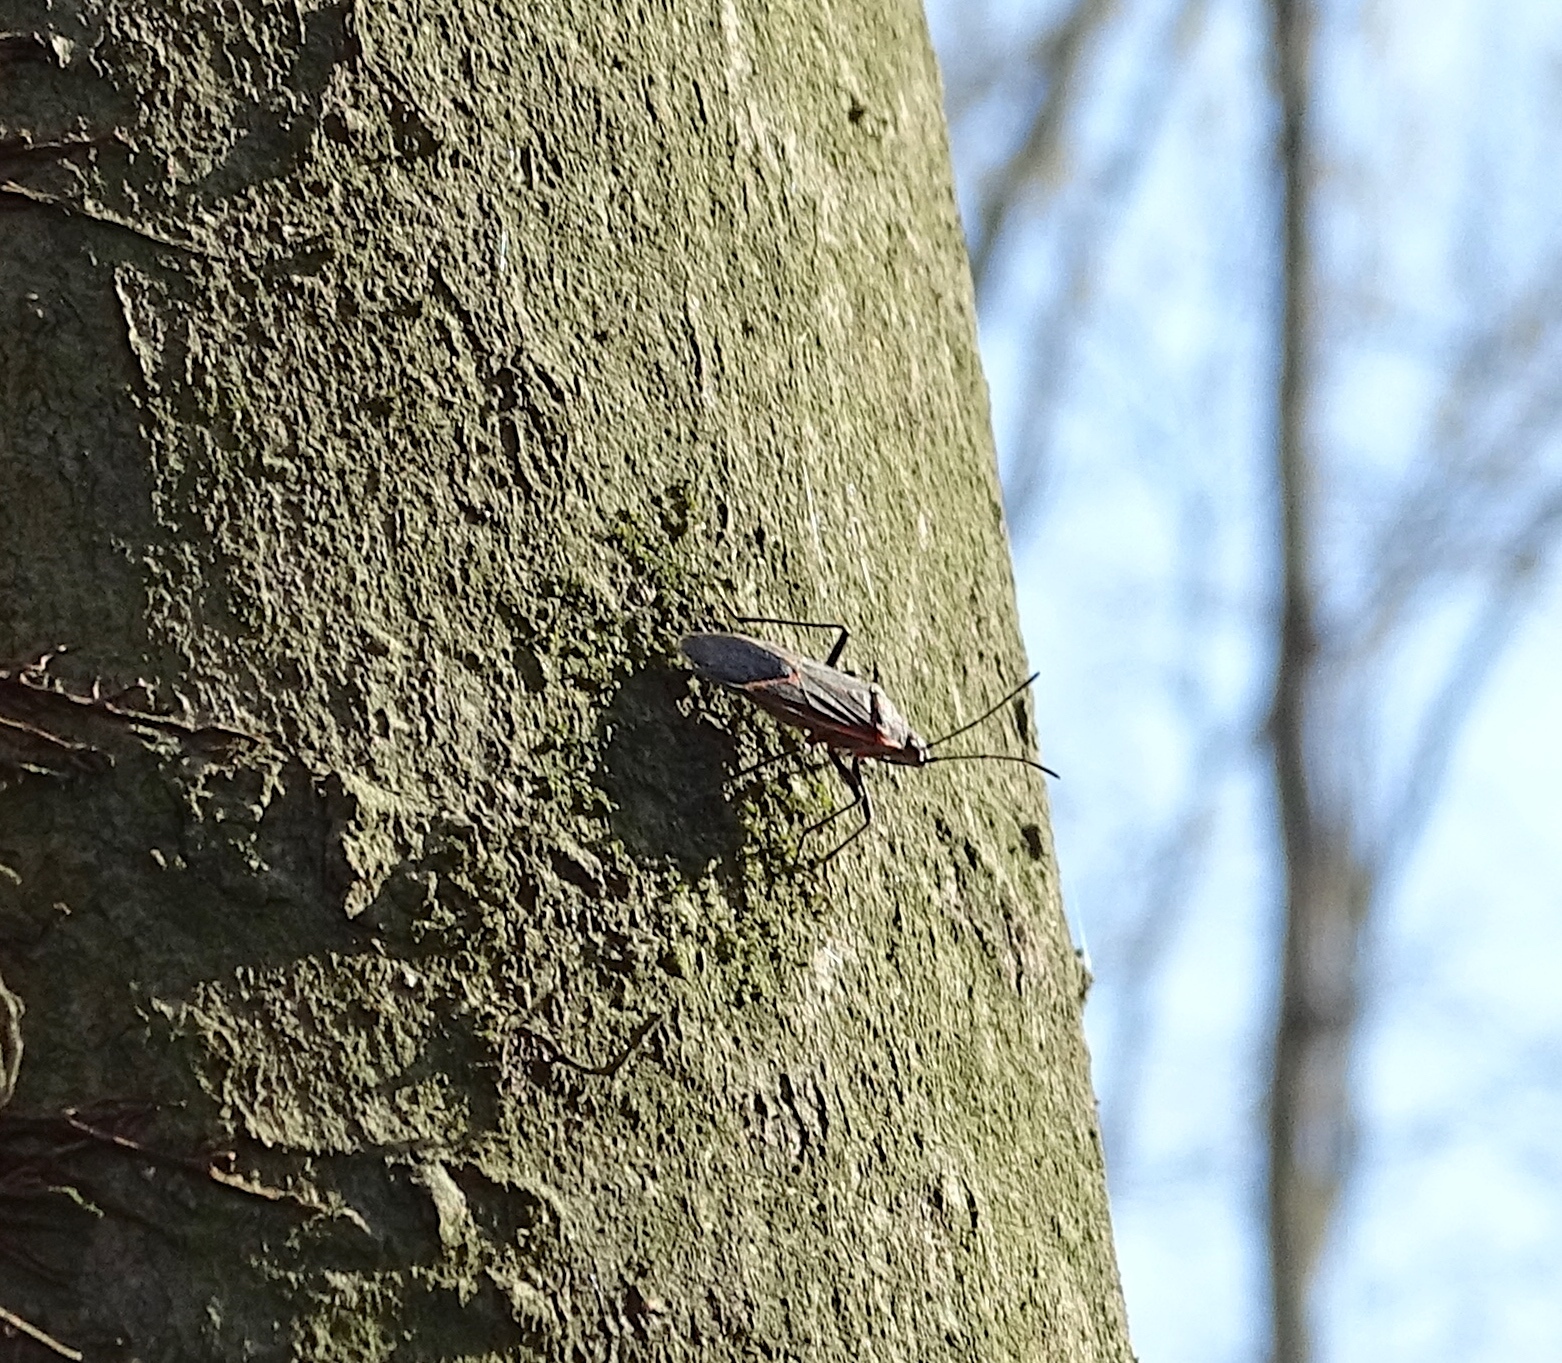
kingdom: Animalia
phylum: Arthropoda
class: Insecta
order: Hemiptera
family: Rhopalidae
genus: Boisea
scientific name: Boisea trivittata
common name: Boxelder bug
